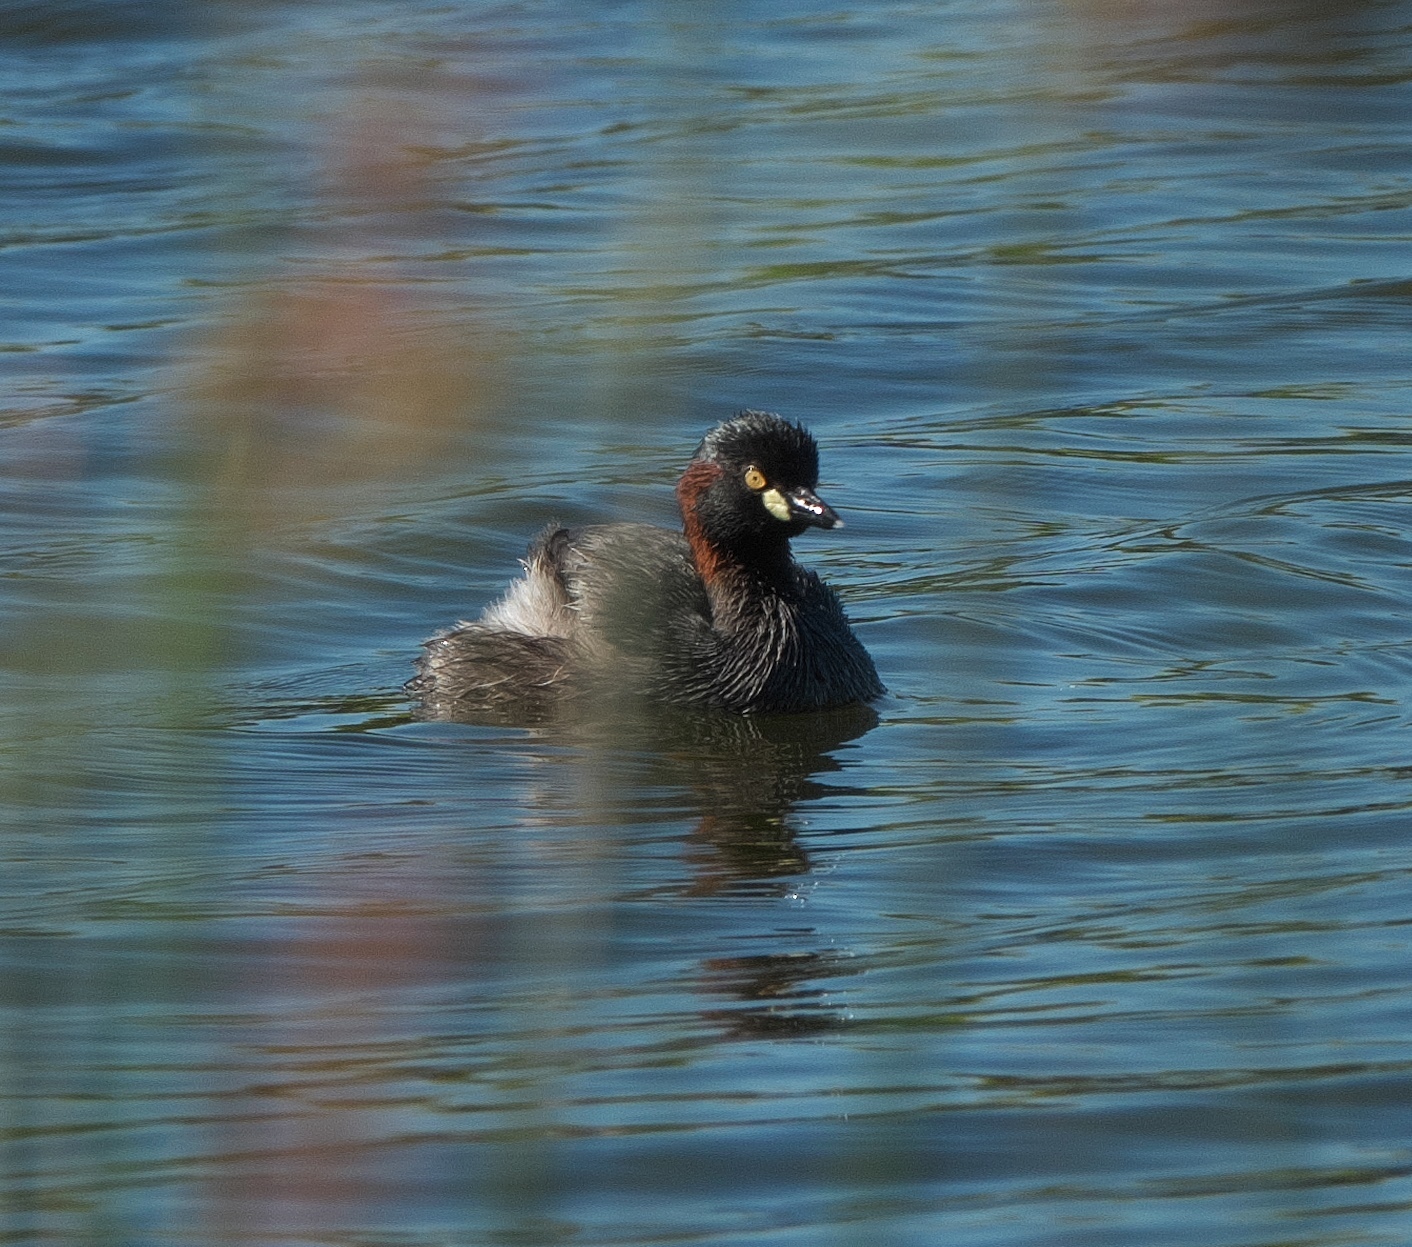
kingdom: Animalia
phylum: Chordata
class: Aves
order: Podicipediformes
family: Podicipedidae
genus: Tachybaptus
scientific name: Tachybaptus novaehollandiae
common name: Australasian grebe
